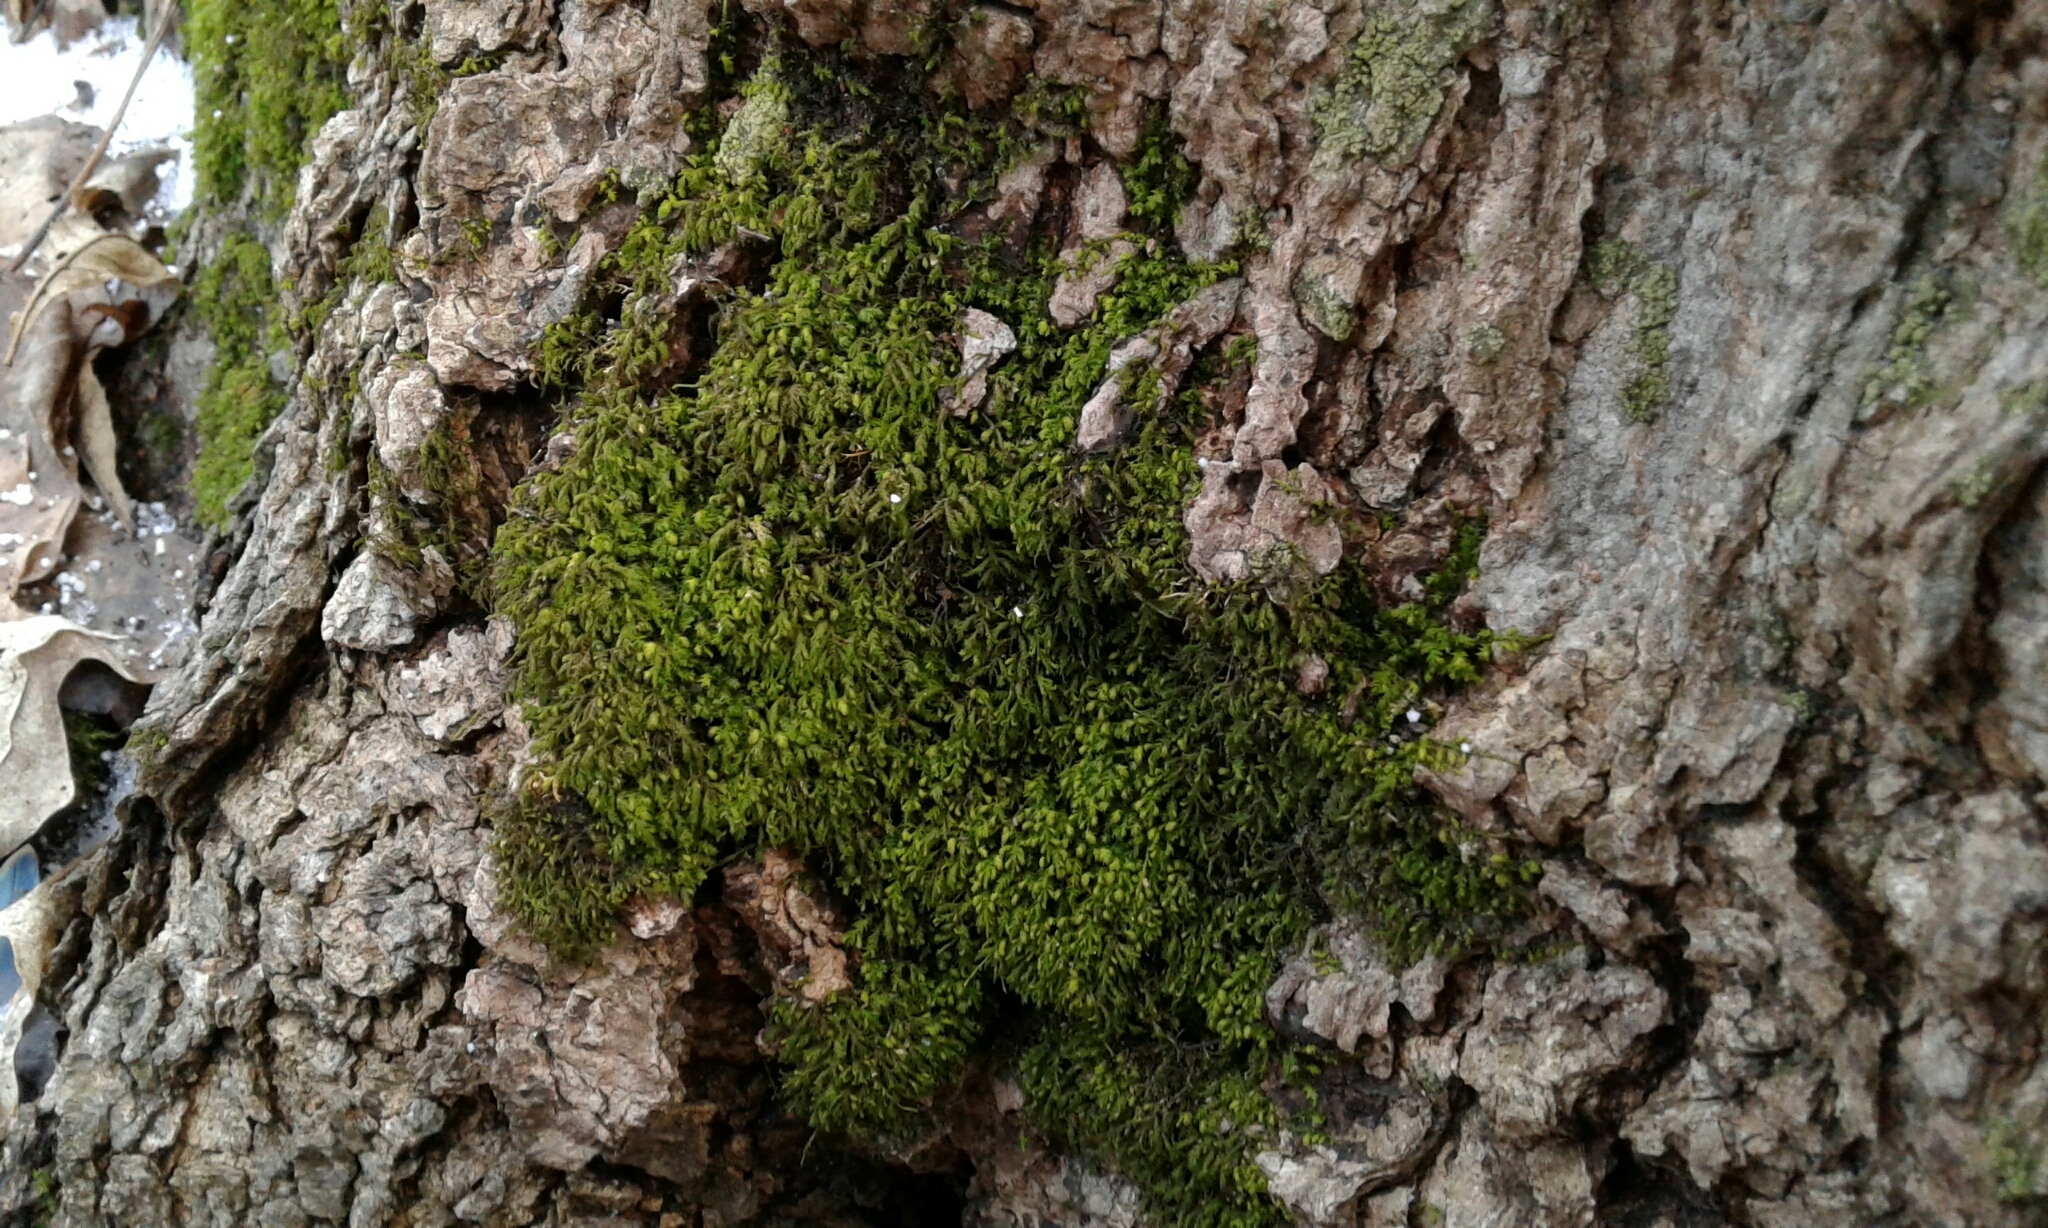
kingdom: Plantae
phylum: Bryophyta
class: Bryopsida
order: Hypnales
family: Neckeraceae
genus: Pseudanomodon
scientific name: Pseudanomodon attenuatus
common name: Tree-skirt moss
